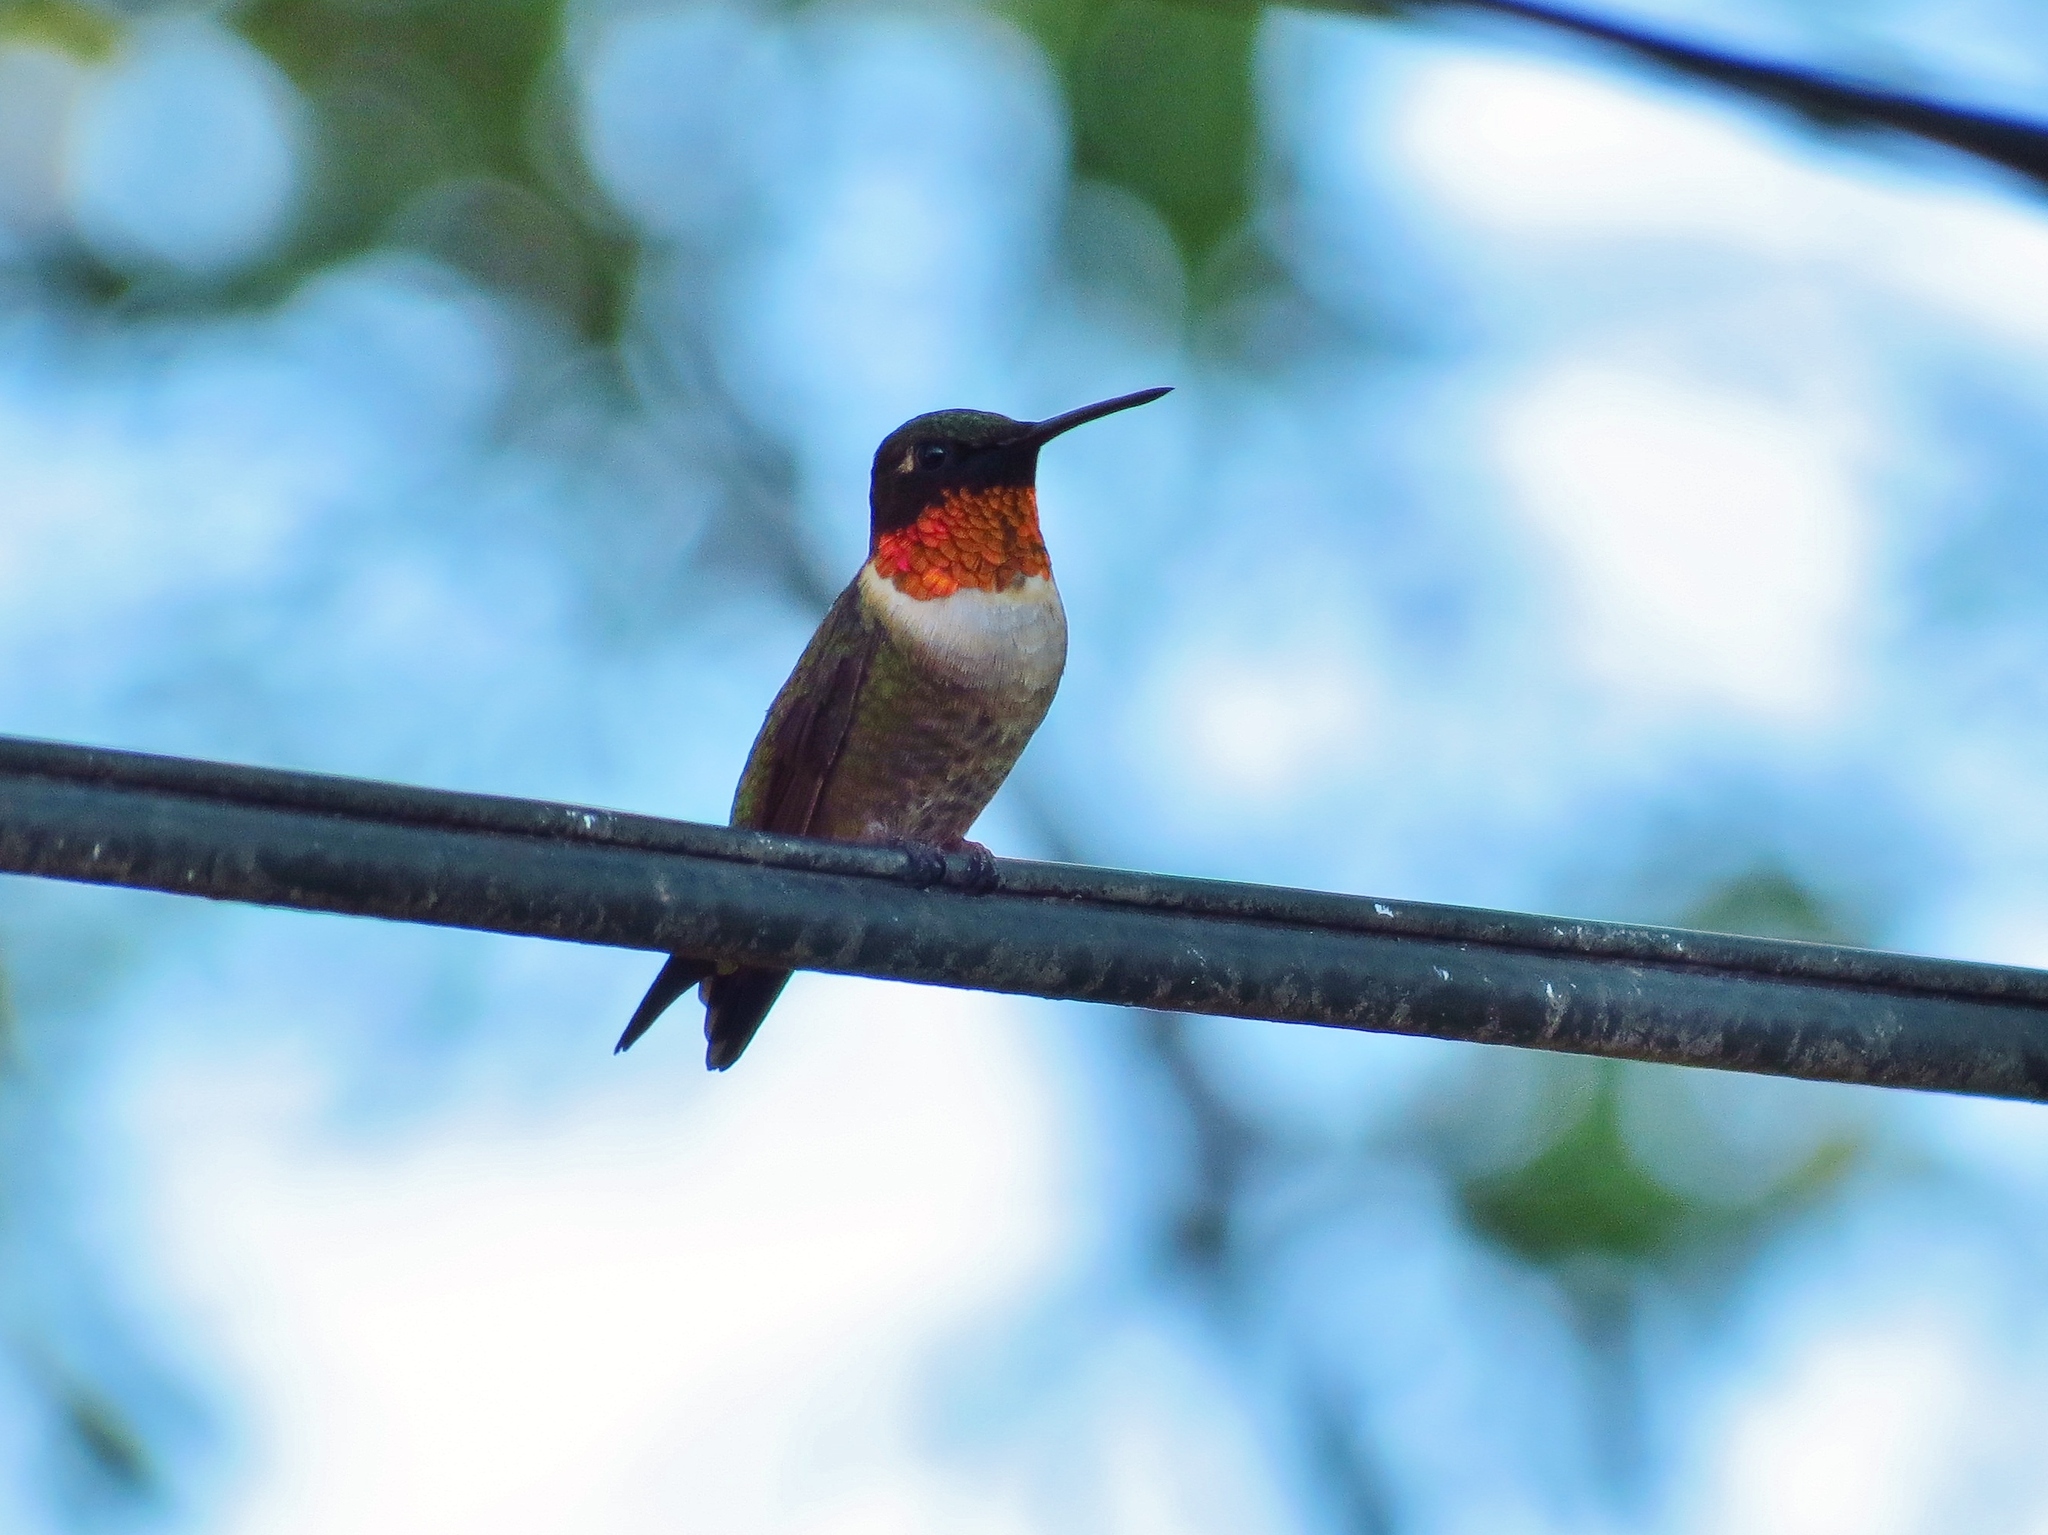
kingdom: Animalia
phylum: Chordata
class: Aves
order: Apodiformes
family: Trochilidae
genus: Archilochus
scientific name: Archilochus colubris
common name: Ruby-throated hummingbird
